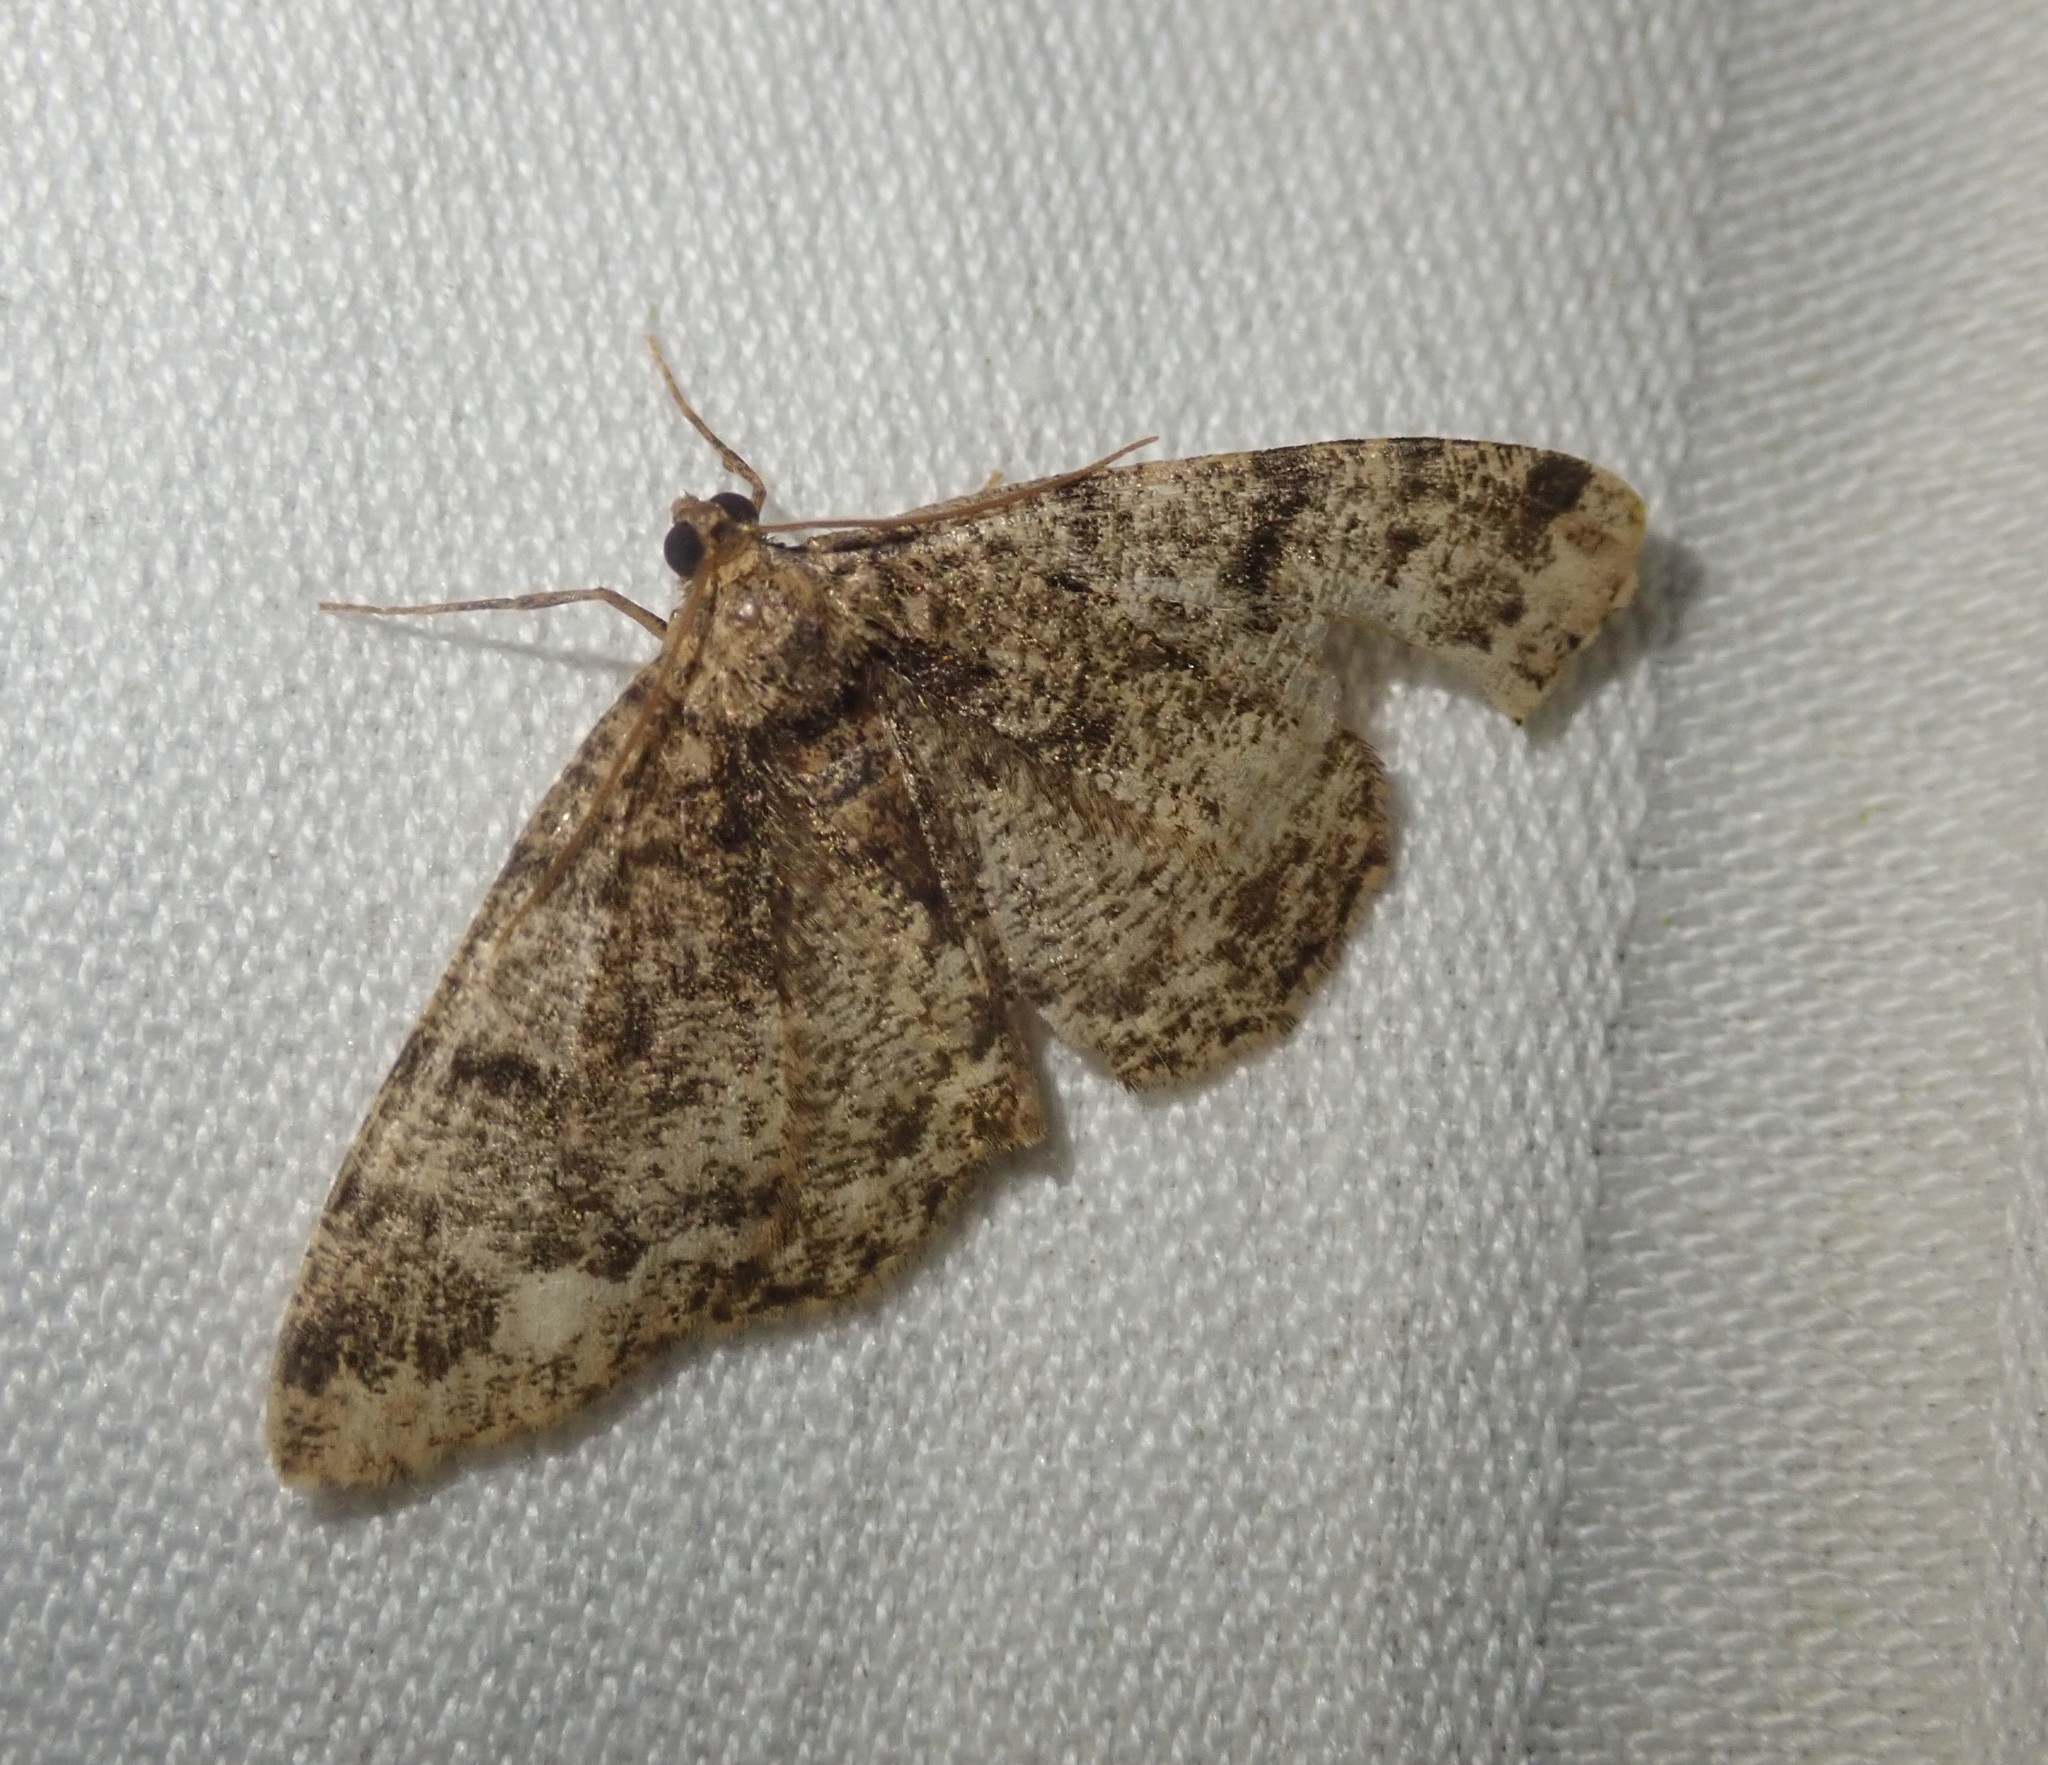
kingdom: Animalia
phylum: Arthropoda
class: Insecta
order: Lepidoptera
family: Geometridae
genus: Parectropis
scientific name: Parectropis similaria
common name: Brindled white-spot
